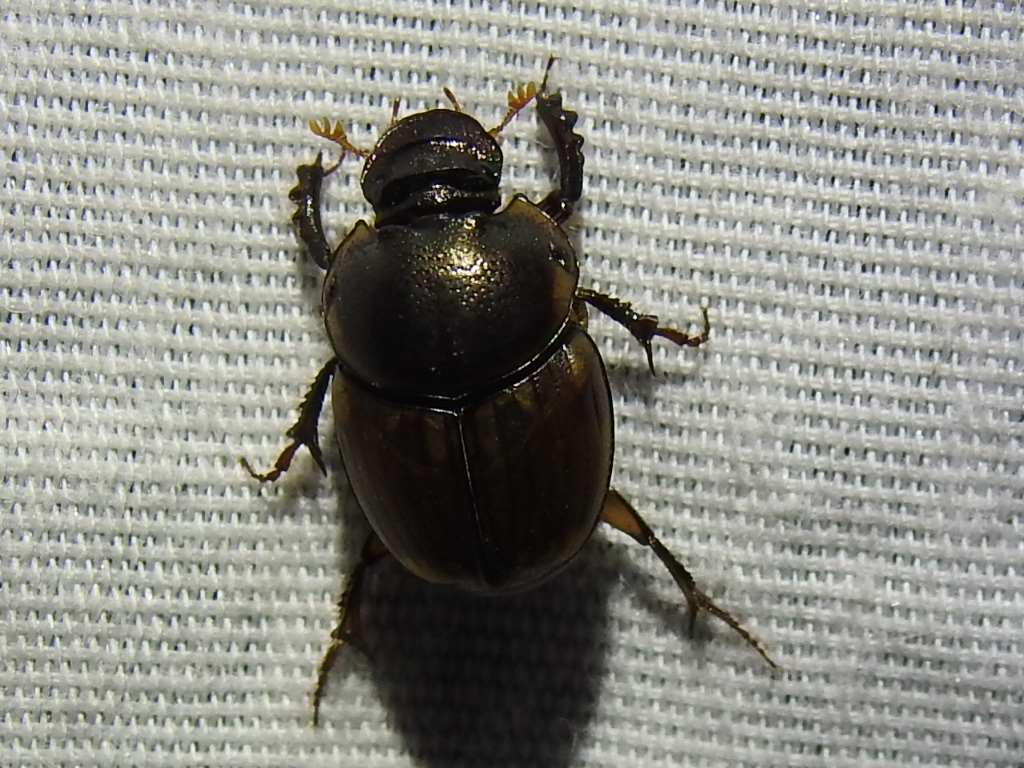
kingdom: Animalia
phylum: Arthropoda
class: Insecta
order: Coleoptera
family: Scarabaeidae
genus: Digitonthophagus
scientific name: Digitonthophagus gazella
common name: Brown dung beetle
